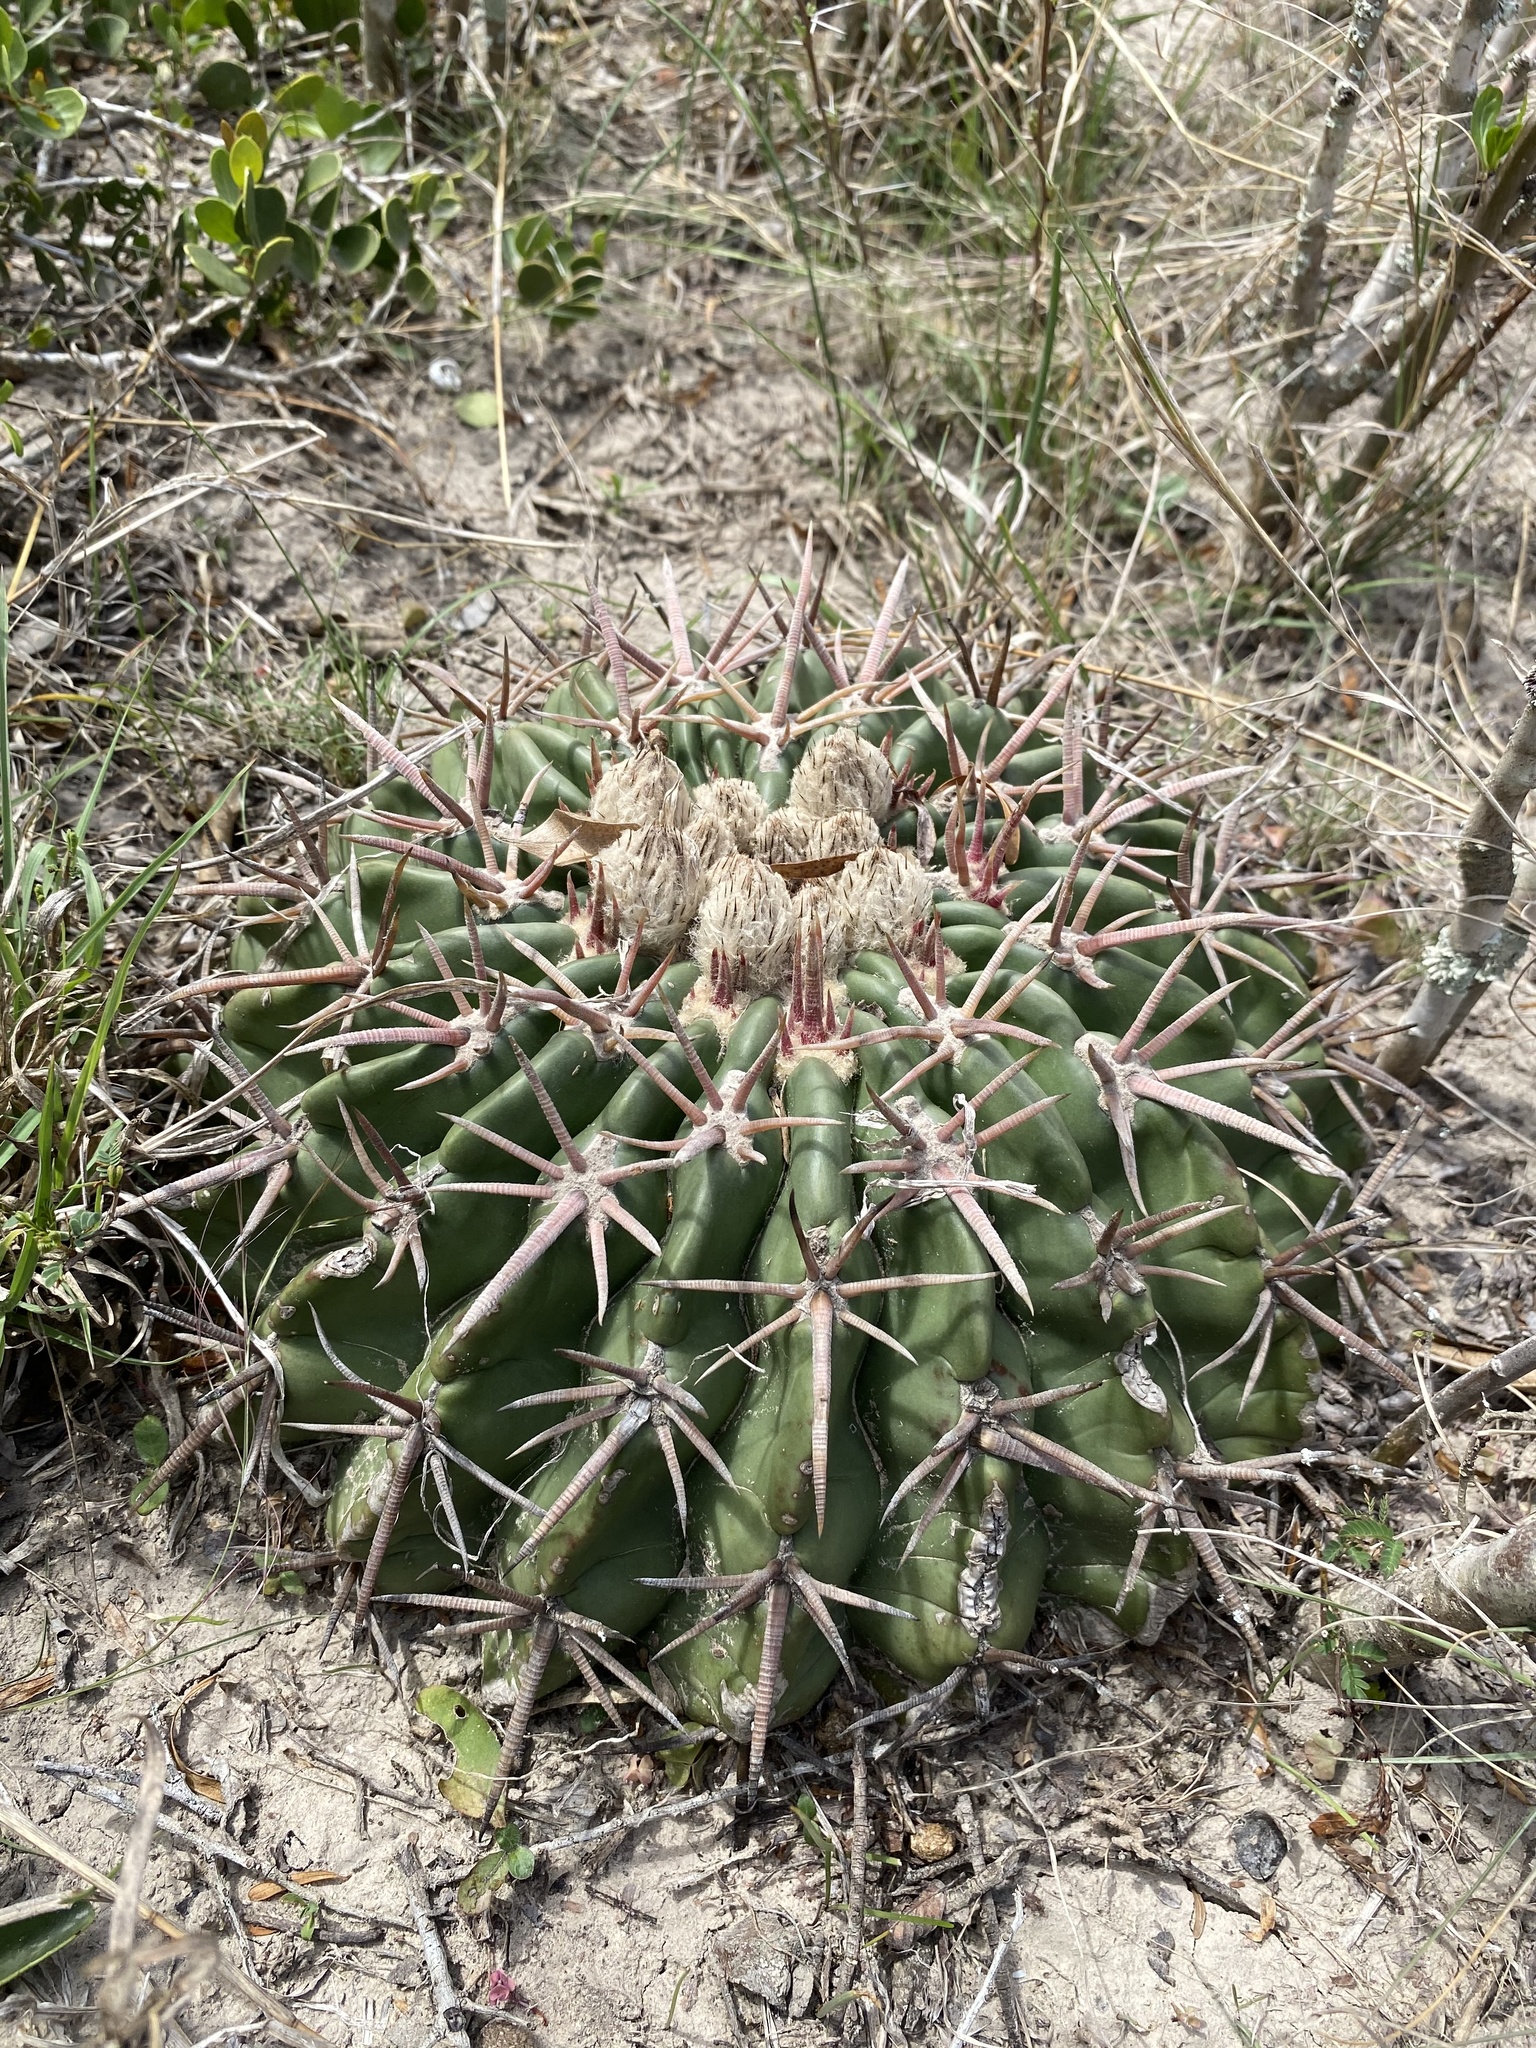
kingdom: Plantae
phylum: Tracheophyta
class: Magnoliopsida
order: Caryophyllales
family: Cactaceae
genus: Echinocactus
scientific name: Echinocactus texensis
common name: Devil's pincushion
